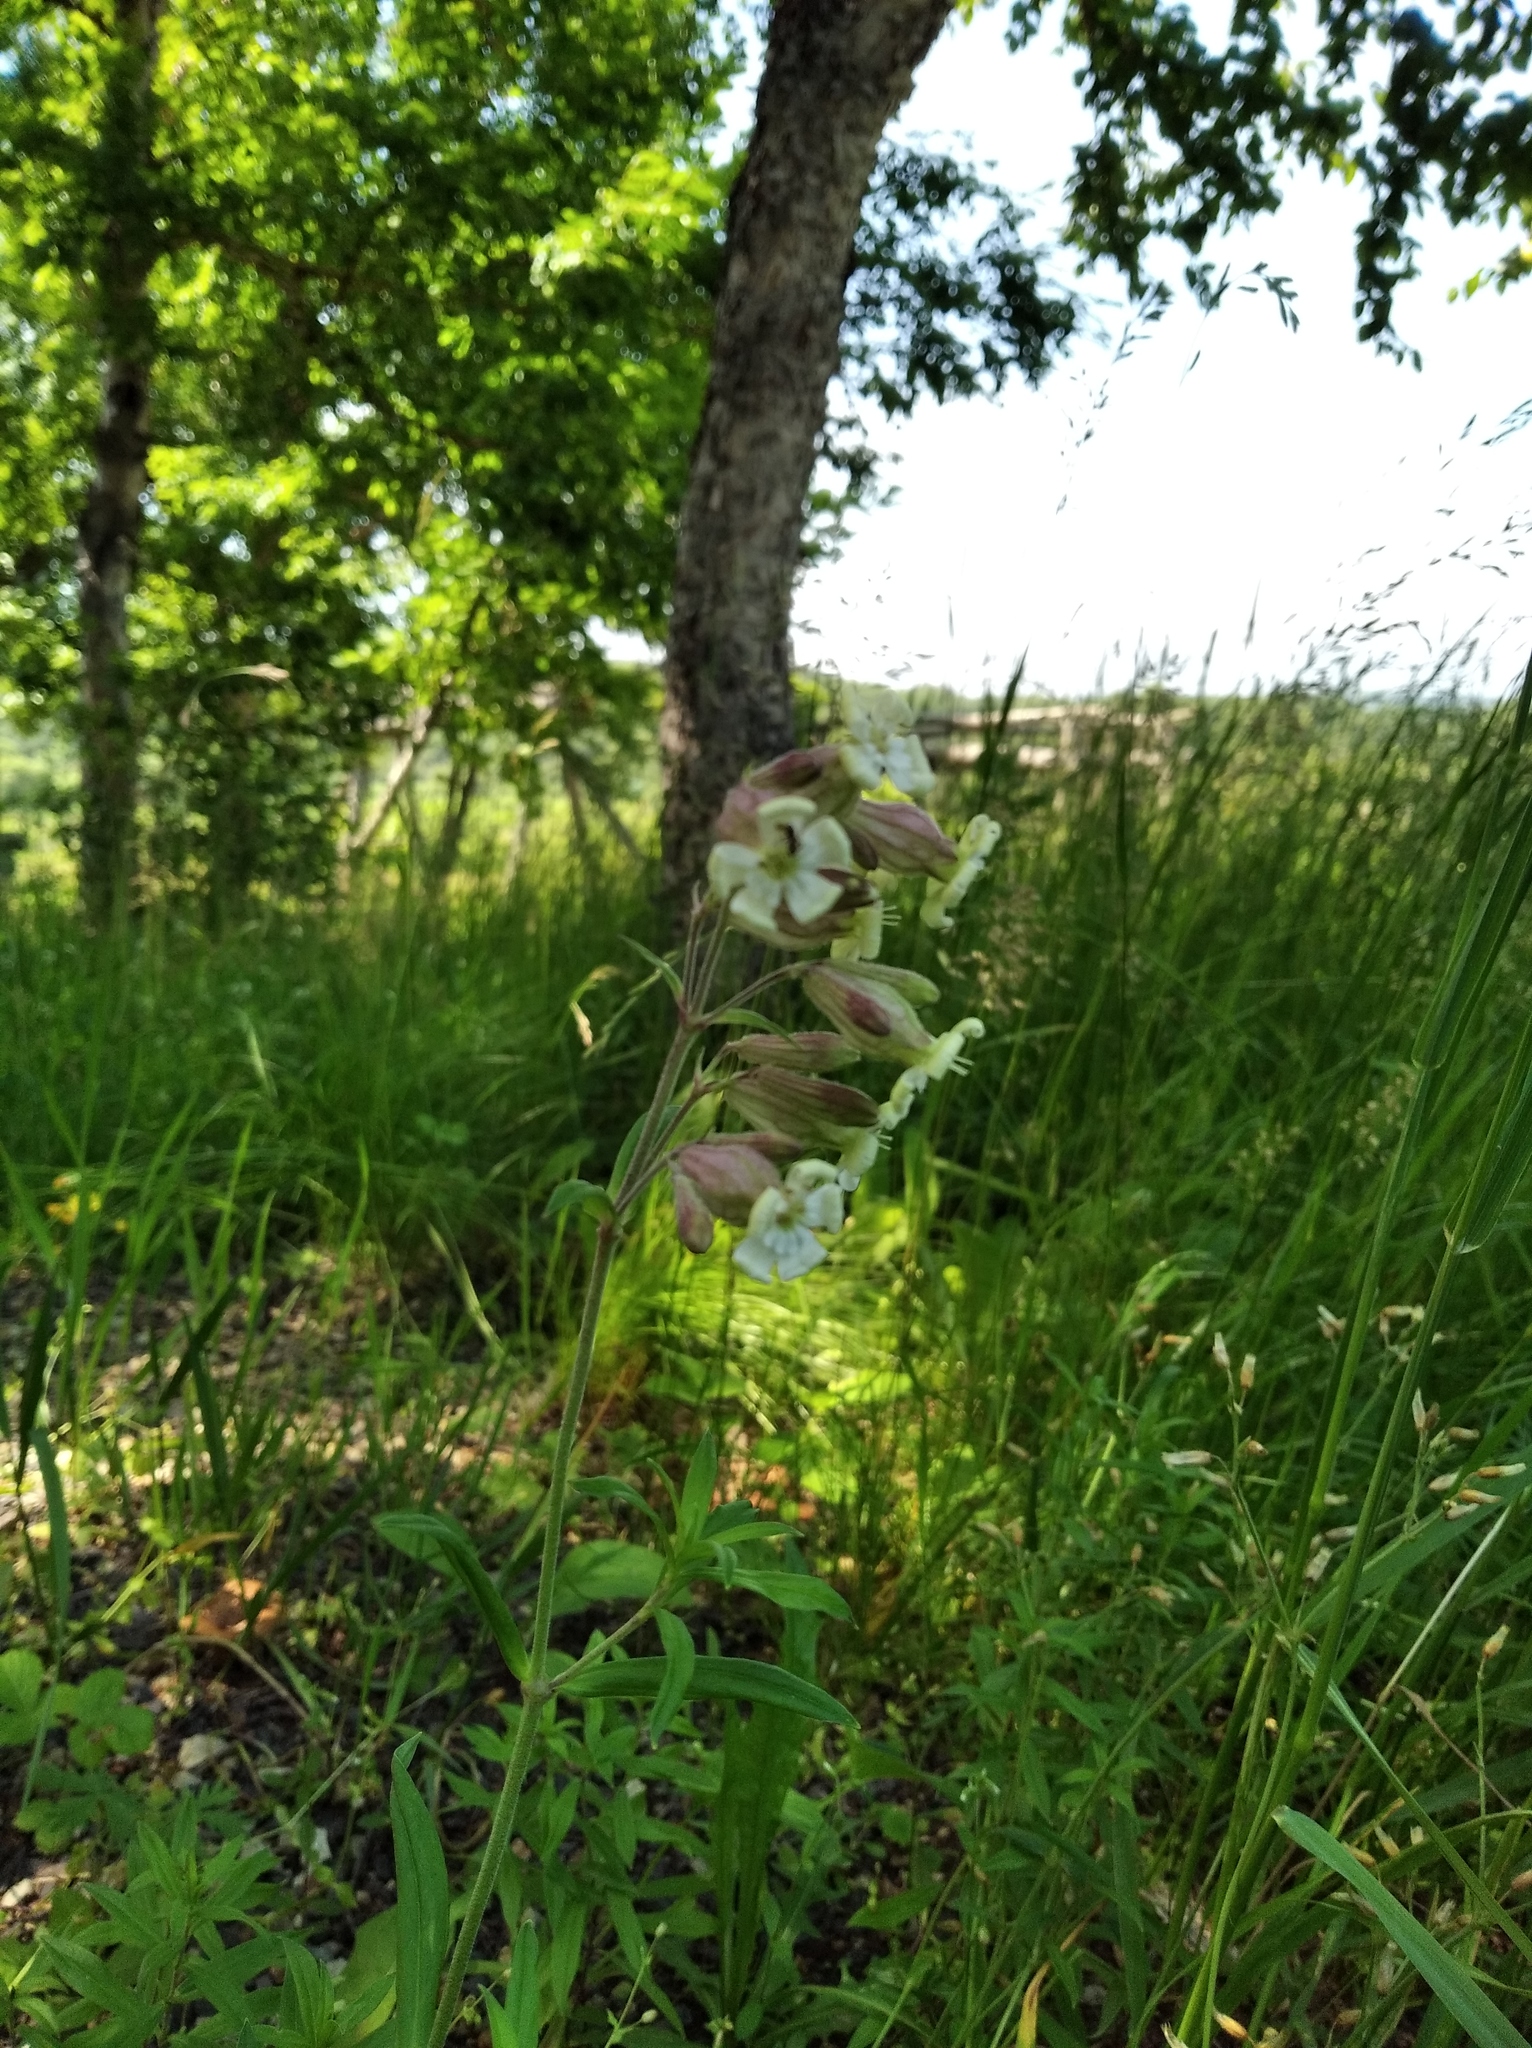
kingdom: Plantae
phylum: Tracheophyta
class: Magnoliopsida
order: Caryophyllales
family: Caryophyllaceae
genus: Silene
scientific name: Silene repens
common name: Pink campion
